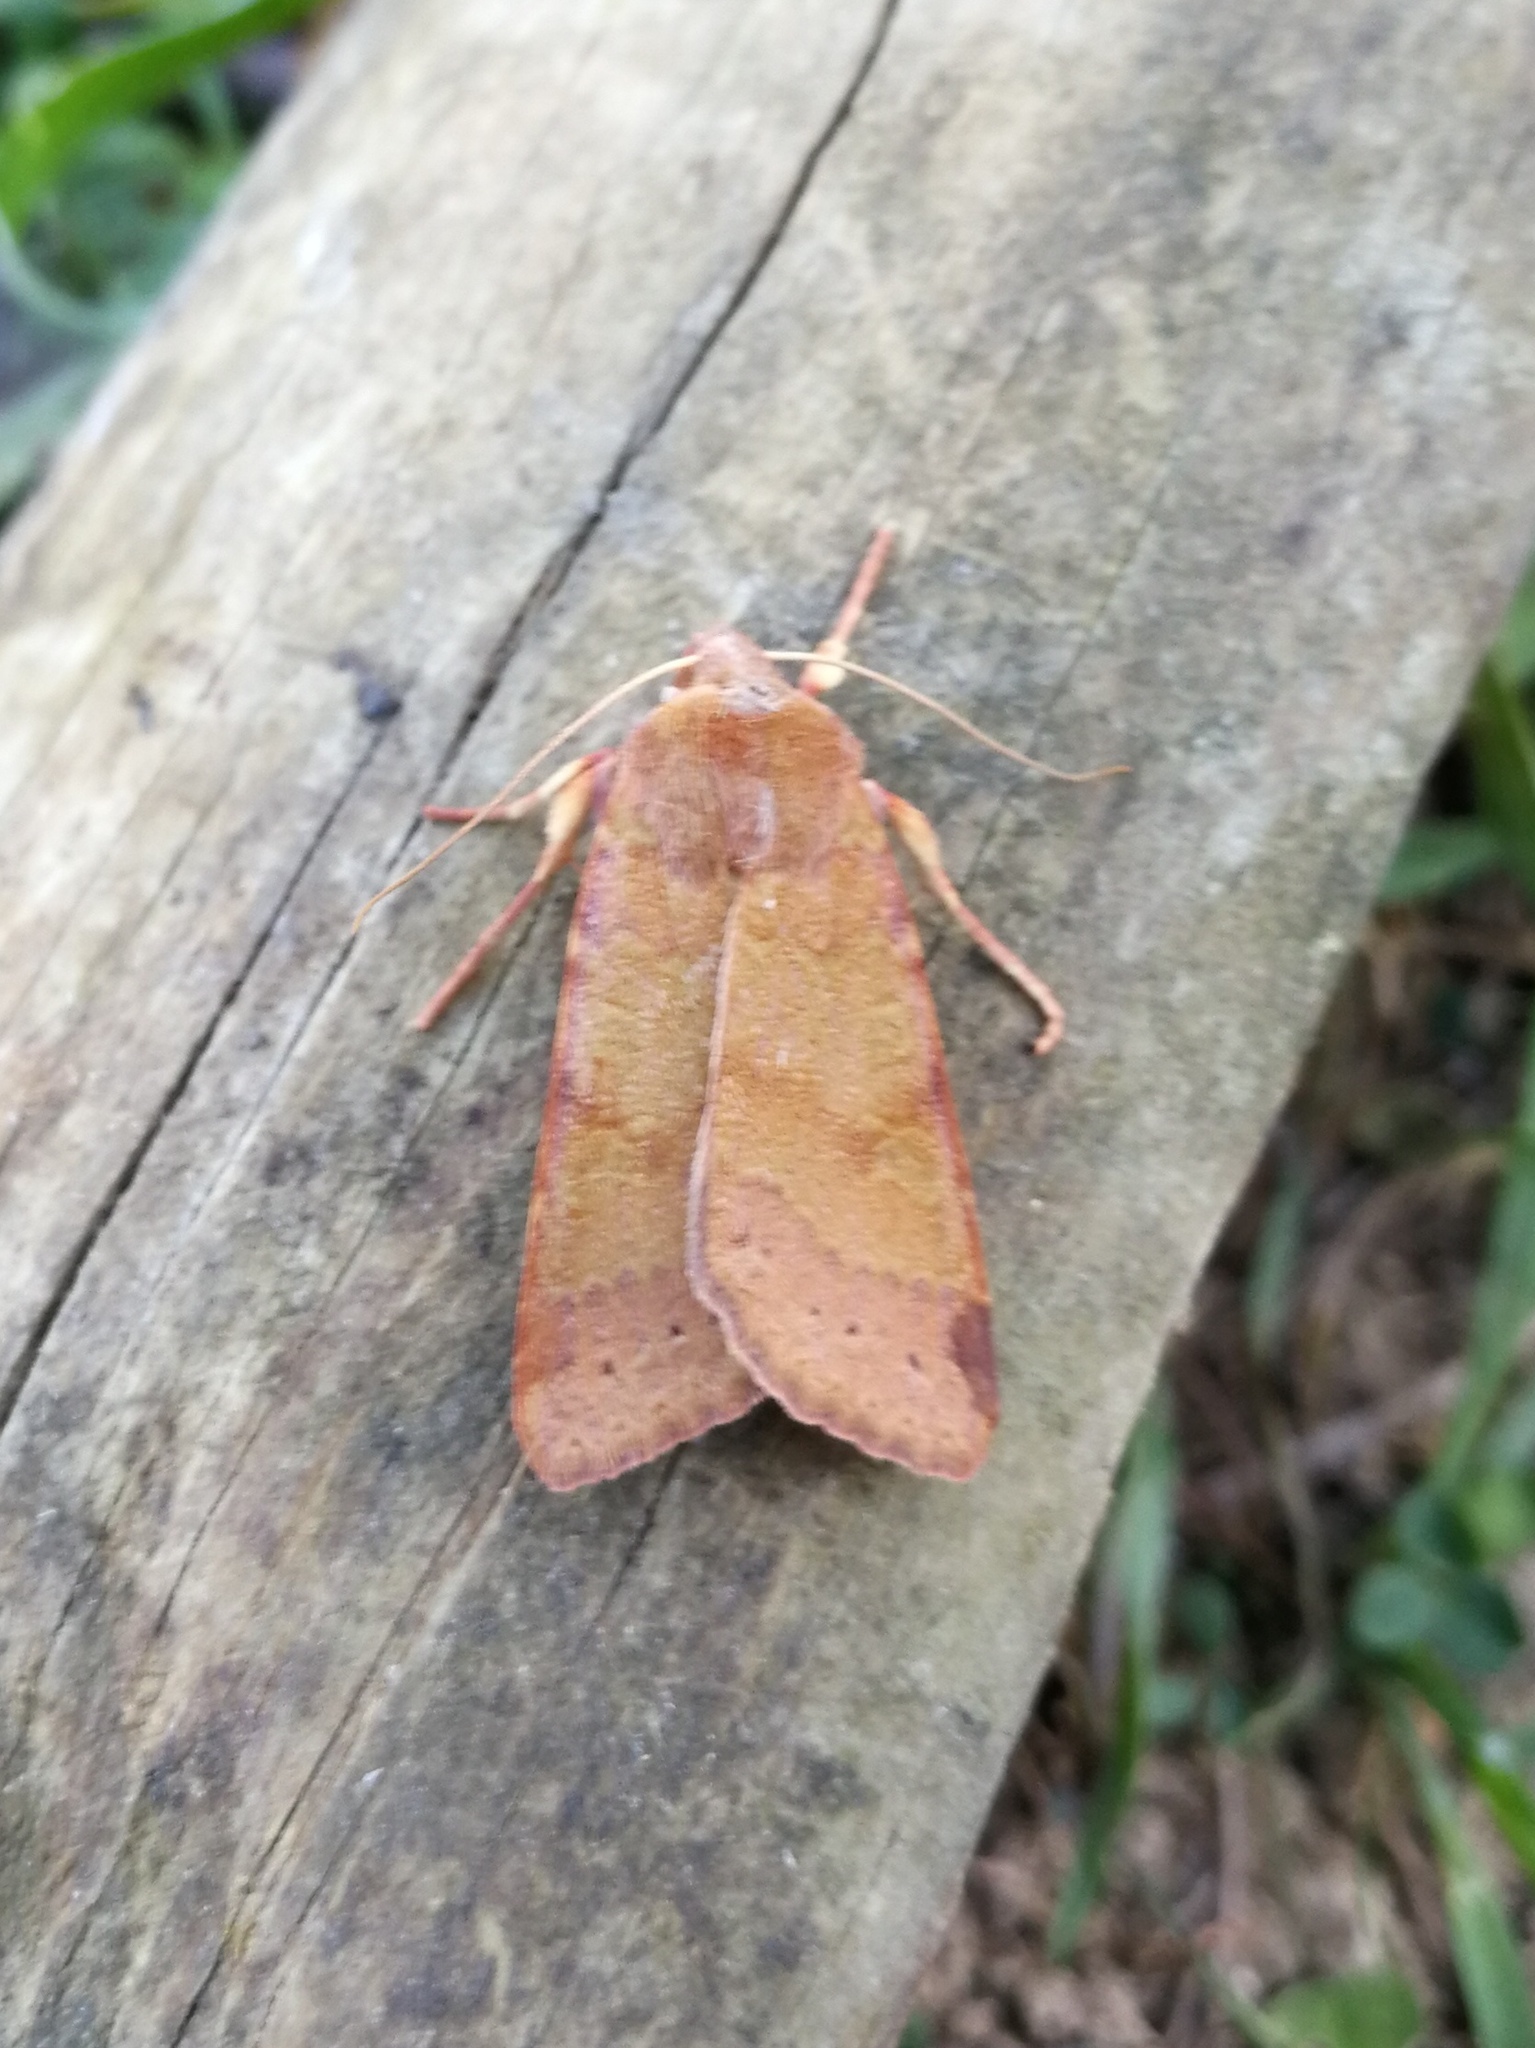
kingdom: Animalia
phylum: Arthropoda
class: Insecta
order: Lepidoptera
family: Noctuidae
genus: Agrochola
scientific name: Agrochola helvola
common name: Flounced chestnut
